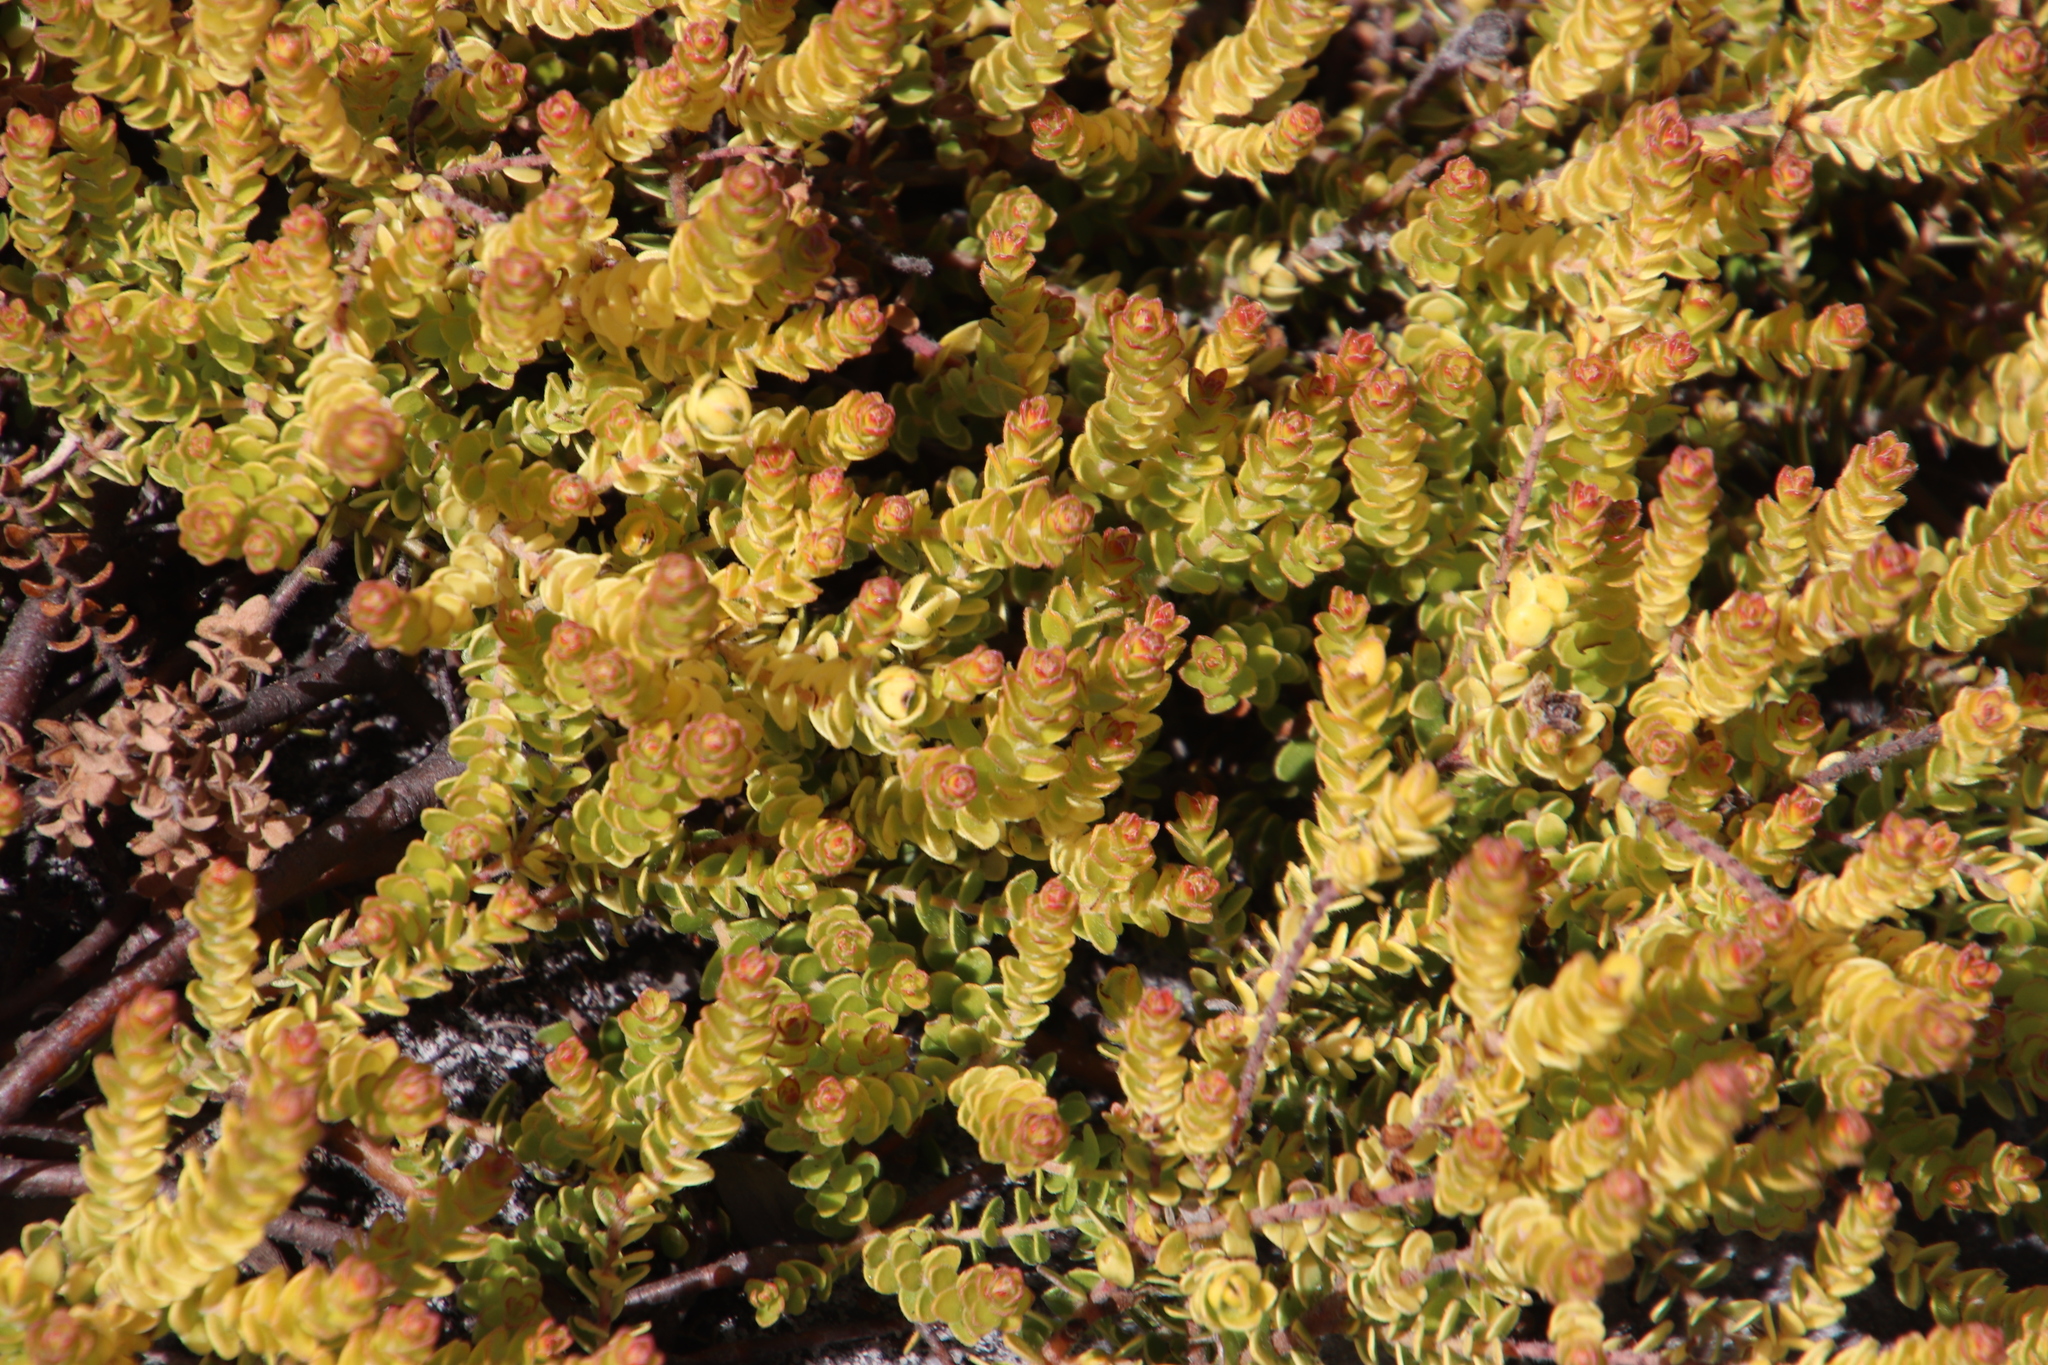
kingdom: Plantae
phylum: Tracheophyta
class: Magnoliopsida
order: Proteales
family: Proteaceae
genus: Diastella
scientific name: Diastella divaricata
